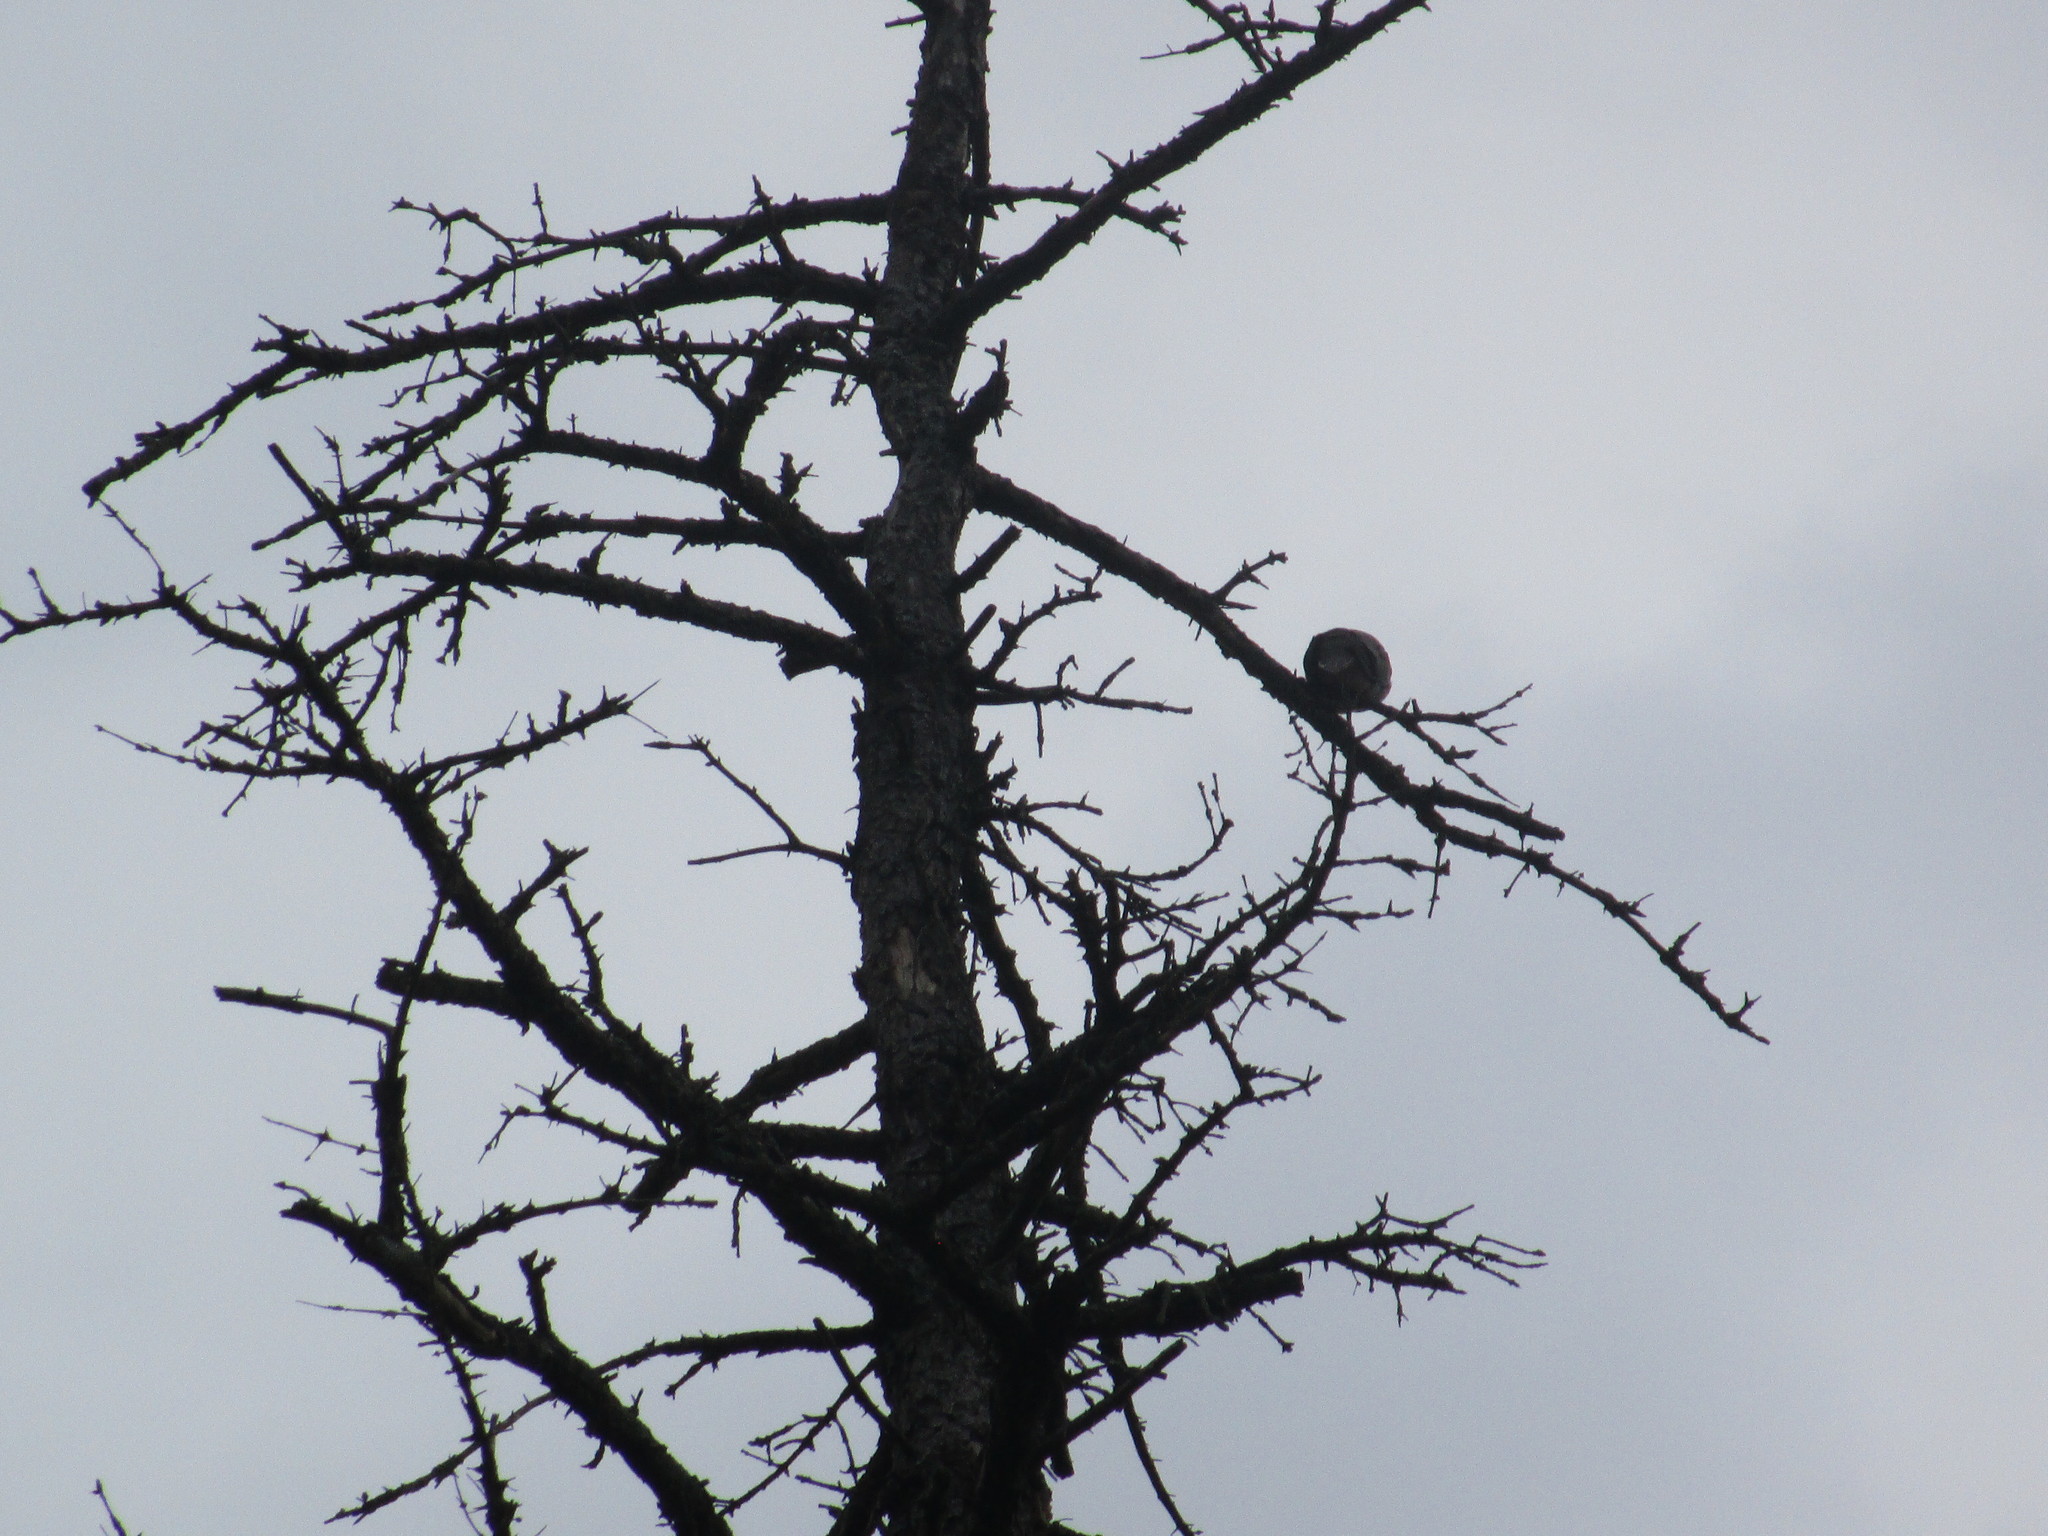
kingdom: Animalia
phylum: Chordata
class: Aves
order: Columbiformes
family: Columbidae
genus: Zenaida
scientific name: Zenaida macroura
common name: Mourning dove
